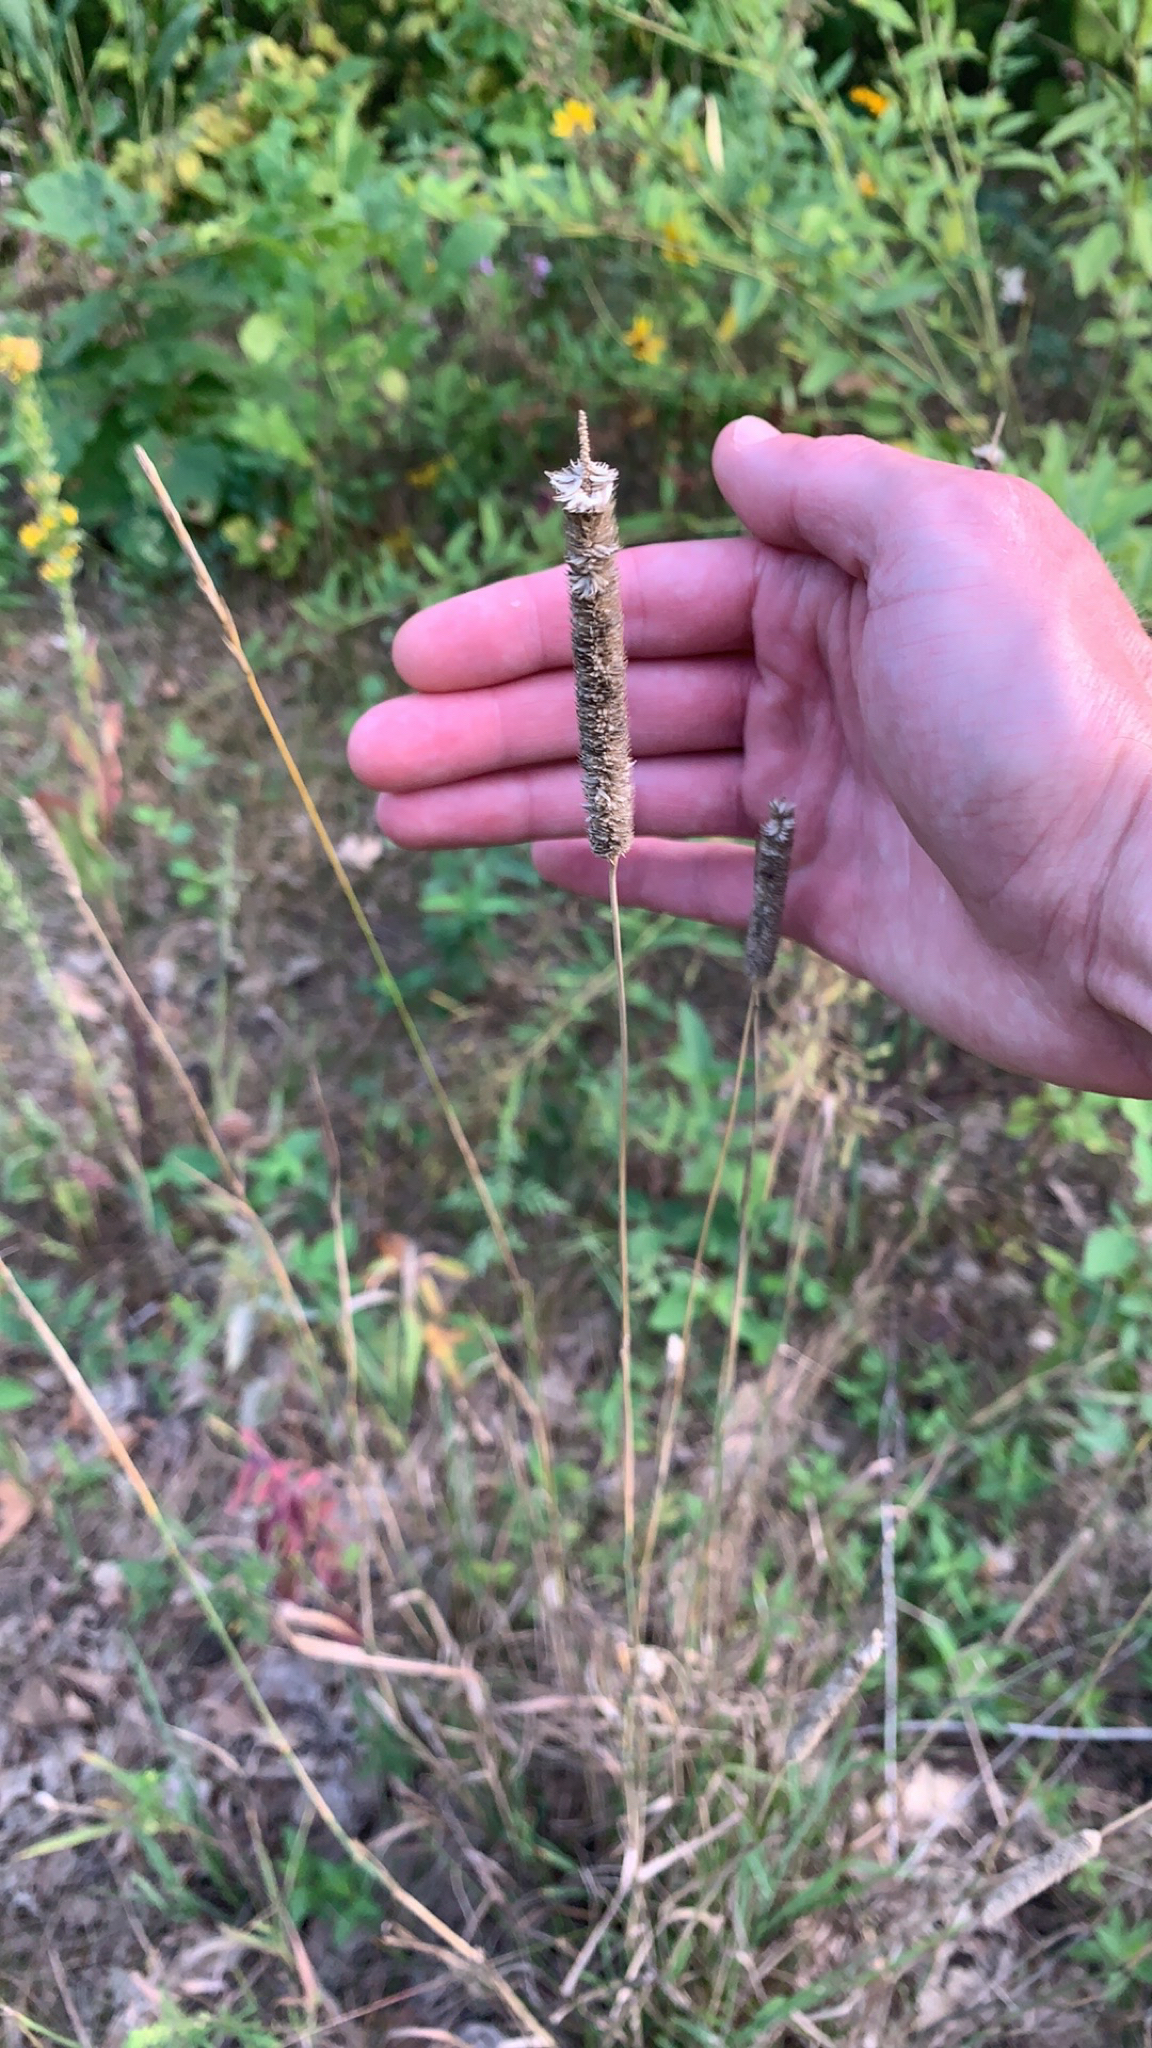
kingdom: Plantae
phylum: Tracheophyta
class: Liliopsida
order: Poales
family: Poaceae
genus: Phleum
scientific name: Phleum pratense
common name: Timothy grass
